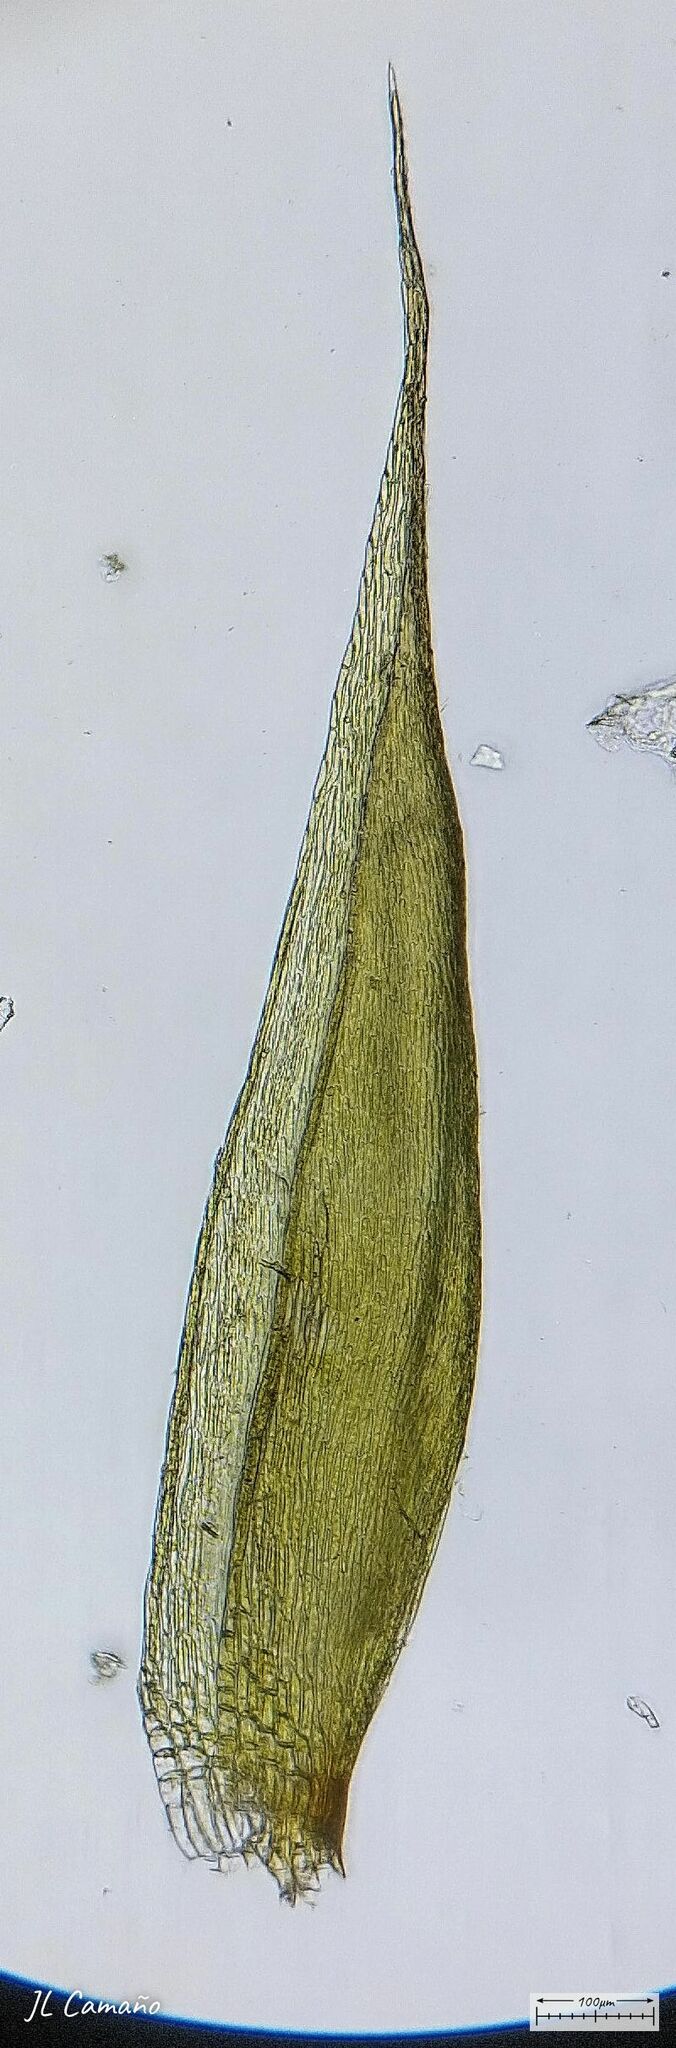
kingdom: Plantae
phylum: Bryophyta
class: Bryopsida
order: Hypnales
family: Sematophyllaceae
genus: Sematophyllum
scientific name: Sematophyllum substrumulosum
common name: Bark signal-moss
